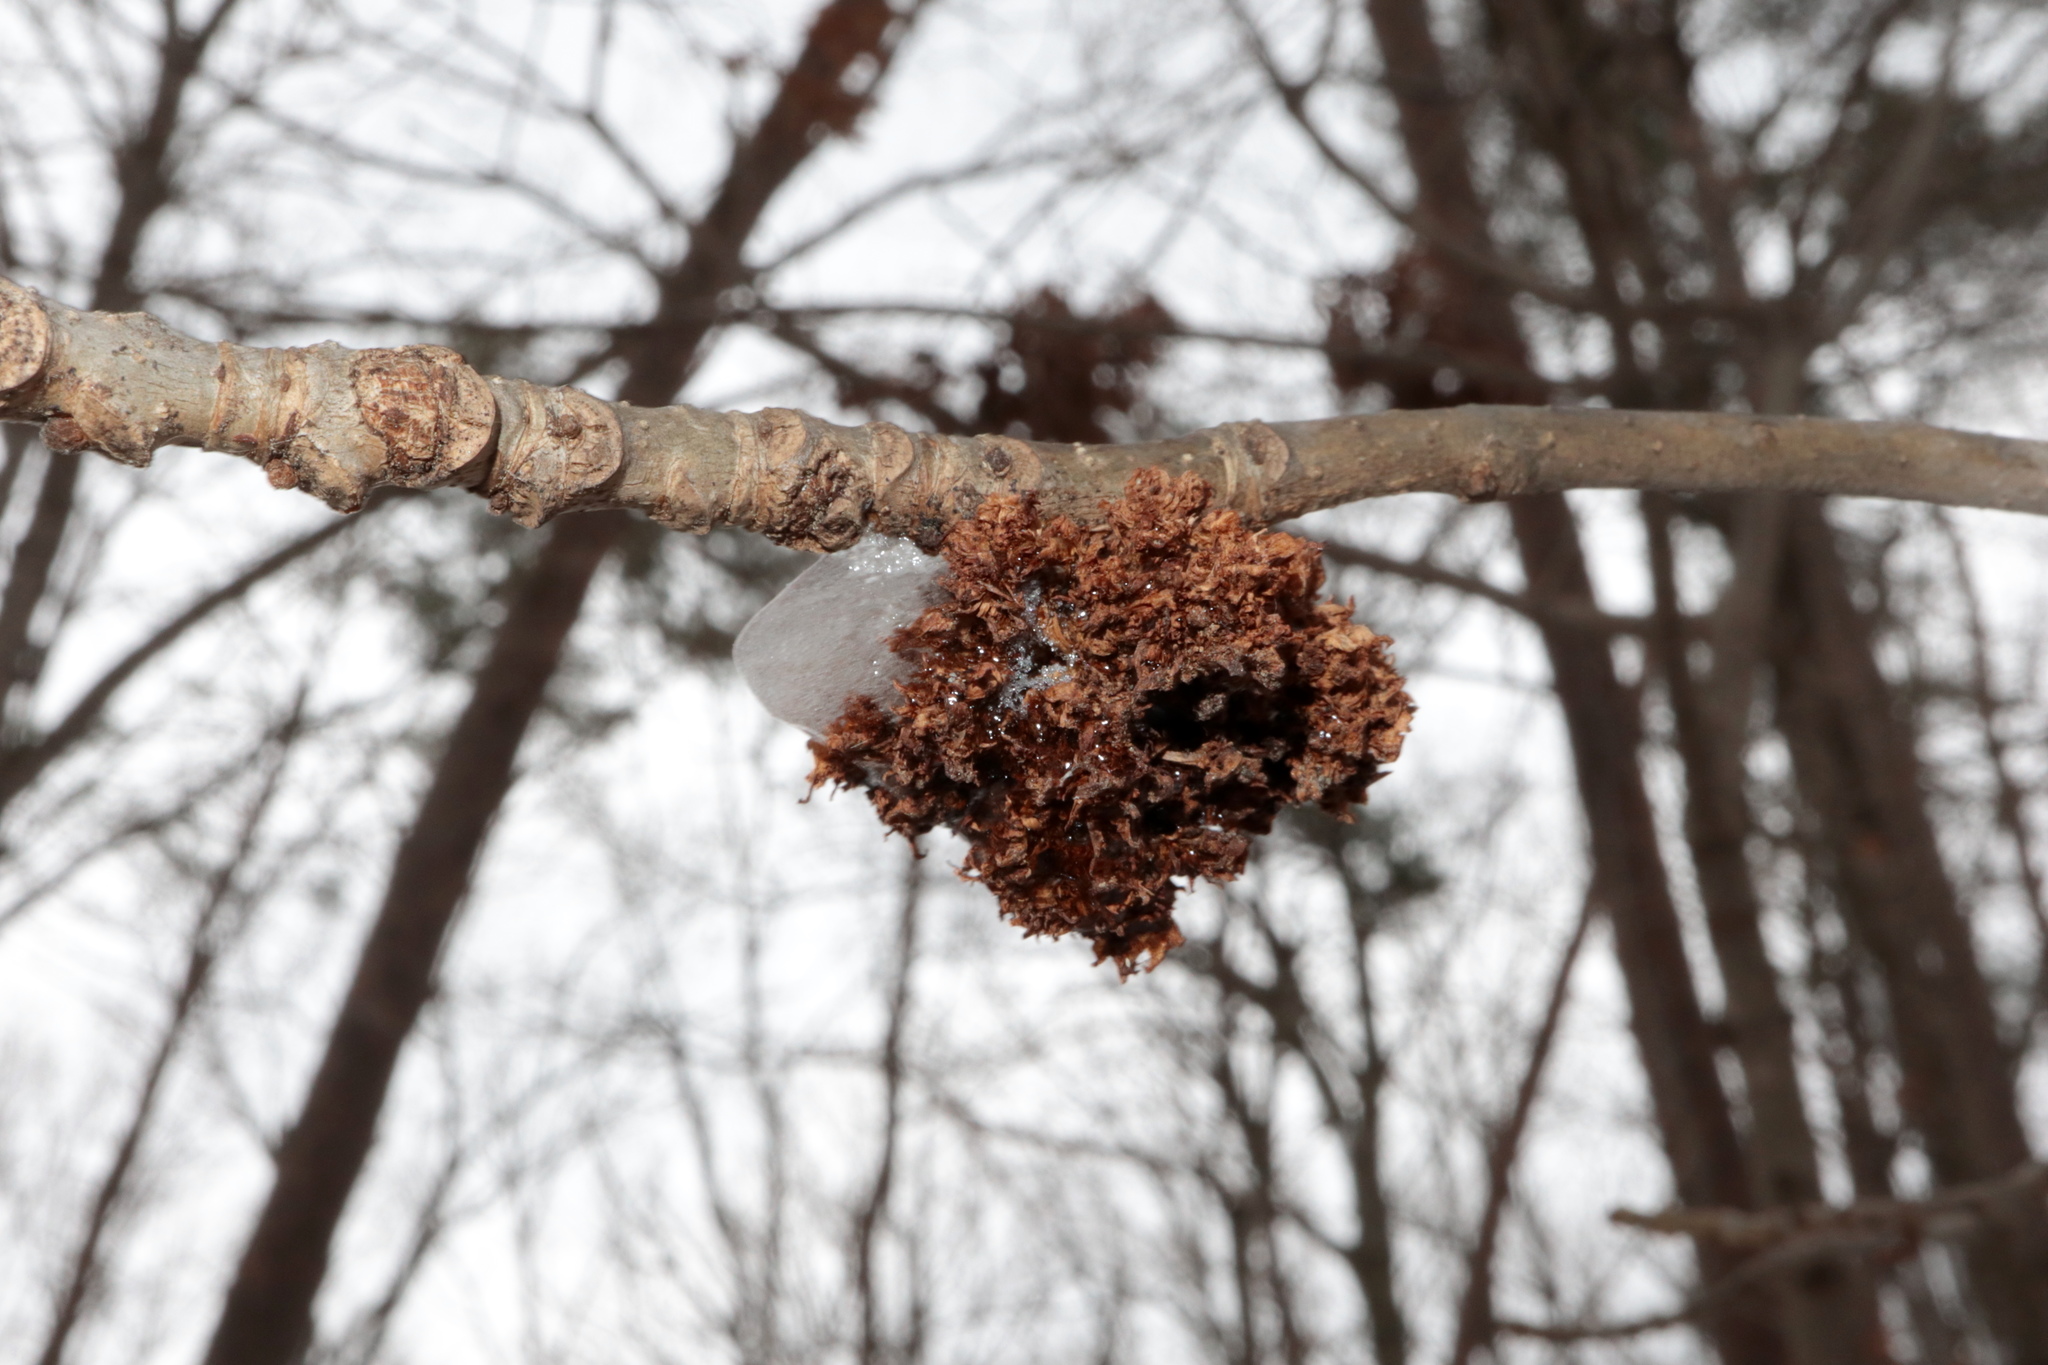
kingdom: Animalia
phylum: Arthropoda
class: Arachnida
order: Trombidiformes
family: Eriophyidae
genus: Aceria
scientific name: Aceria fraxiniflora
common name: Ash flower gall mite
